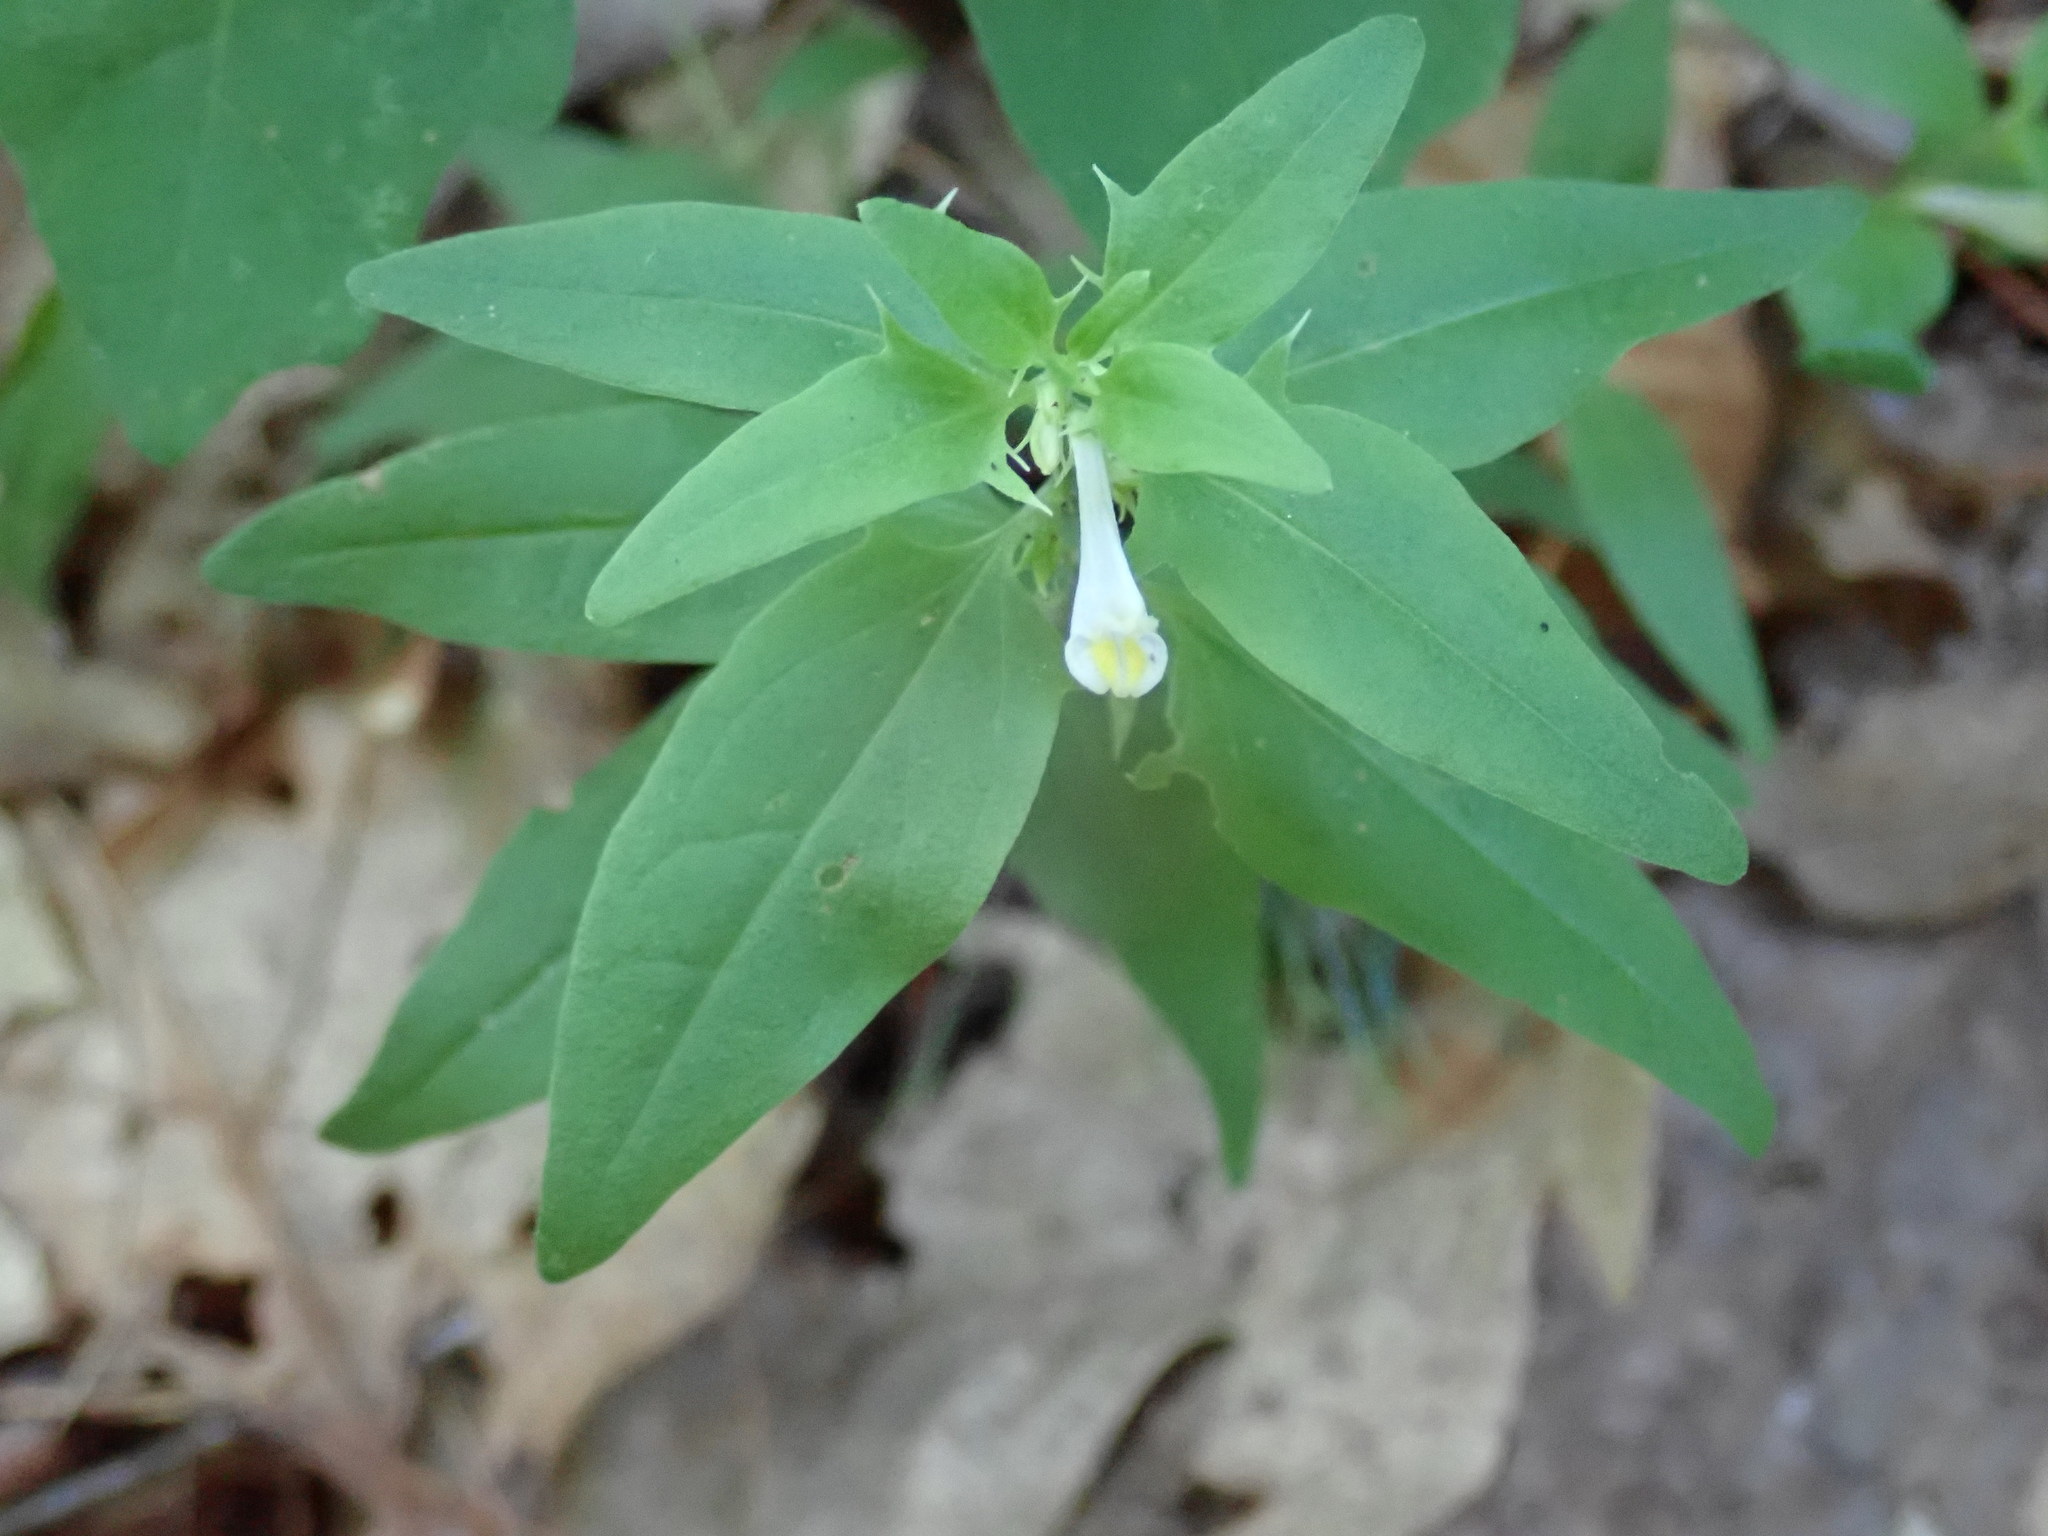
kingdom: Plantae
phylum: Tracheophyta
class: Magnoliopsida
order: Lamiales
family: Orobanchaceae
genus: Melampyrum
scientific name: Melampyrum lineare
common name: American cow-wheat
